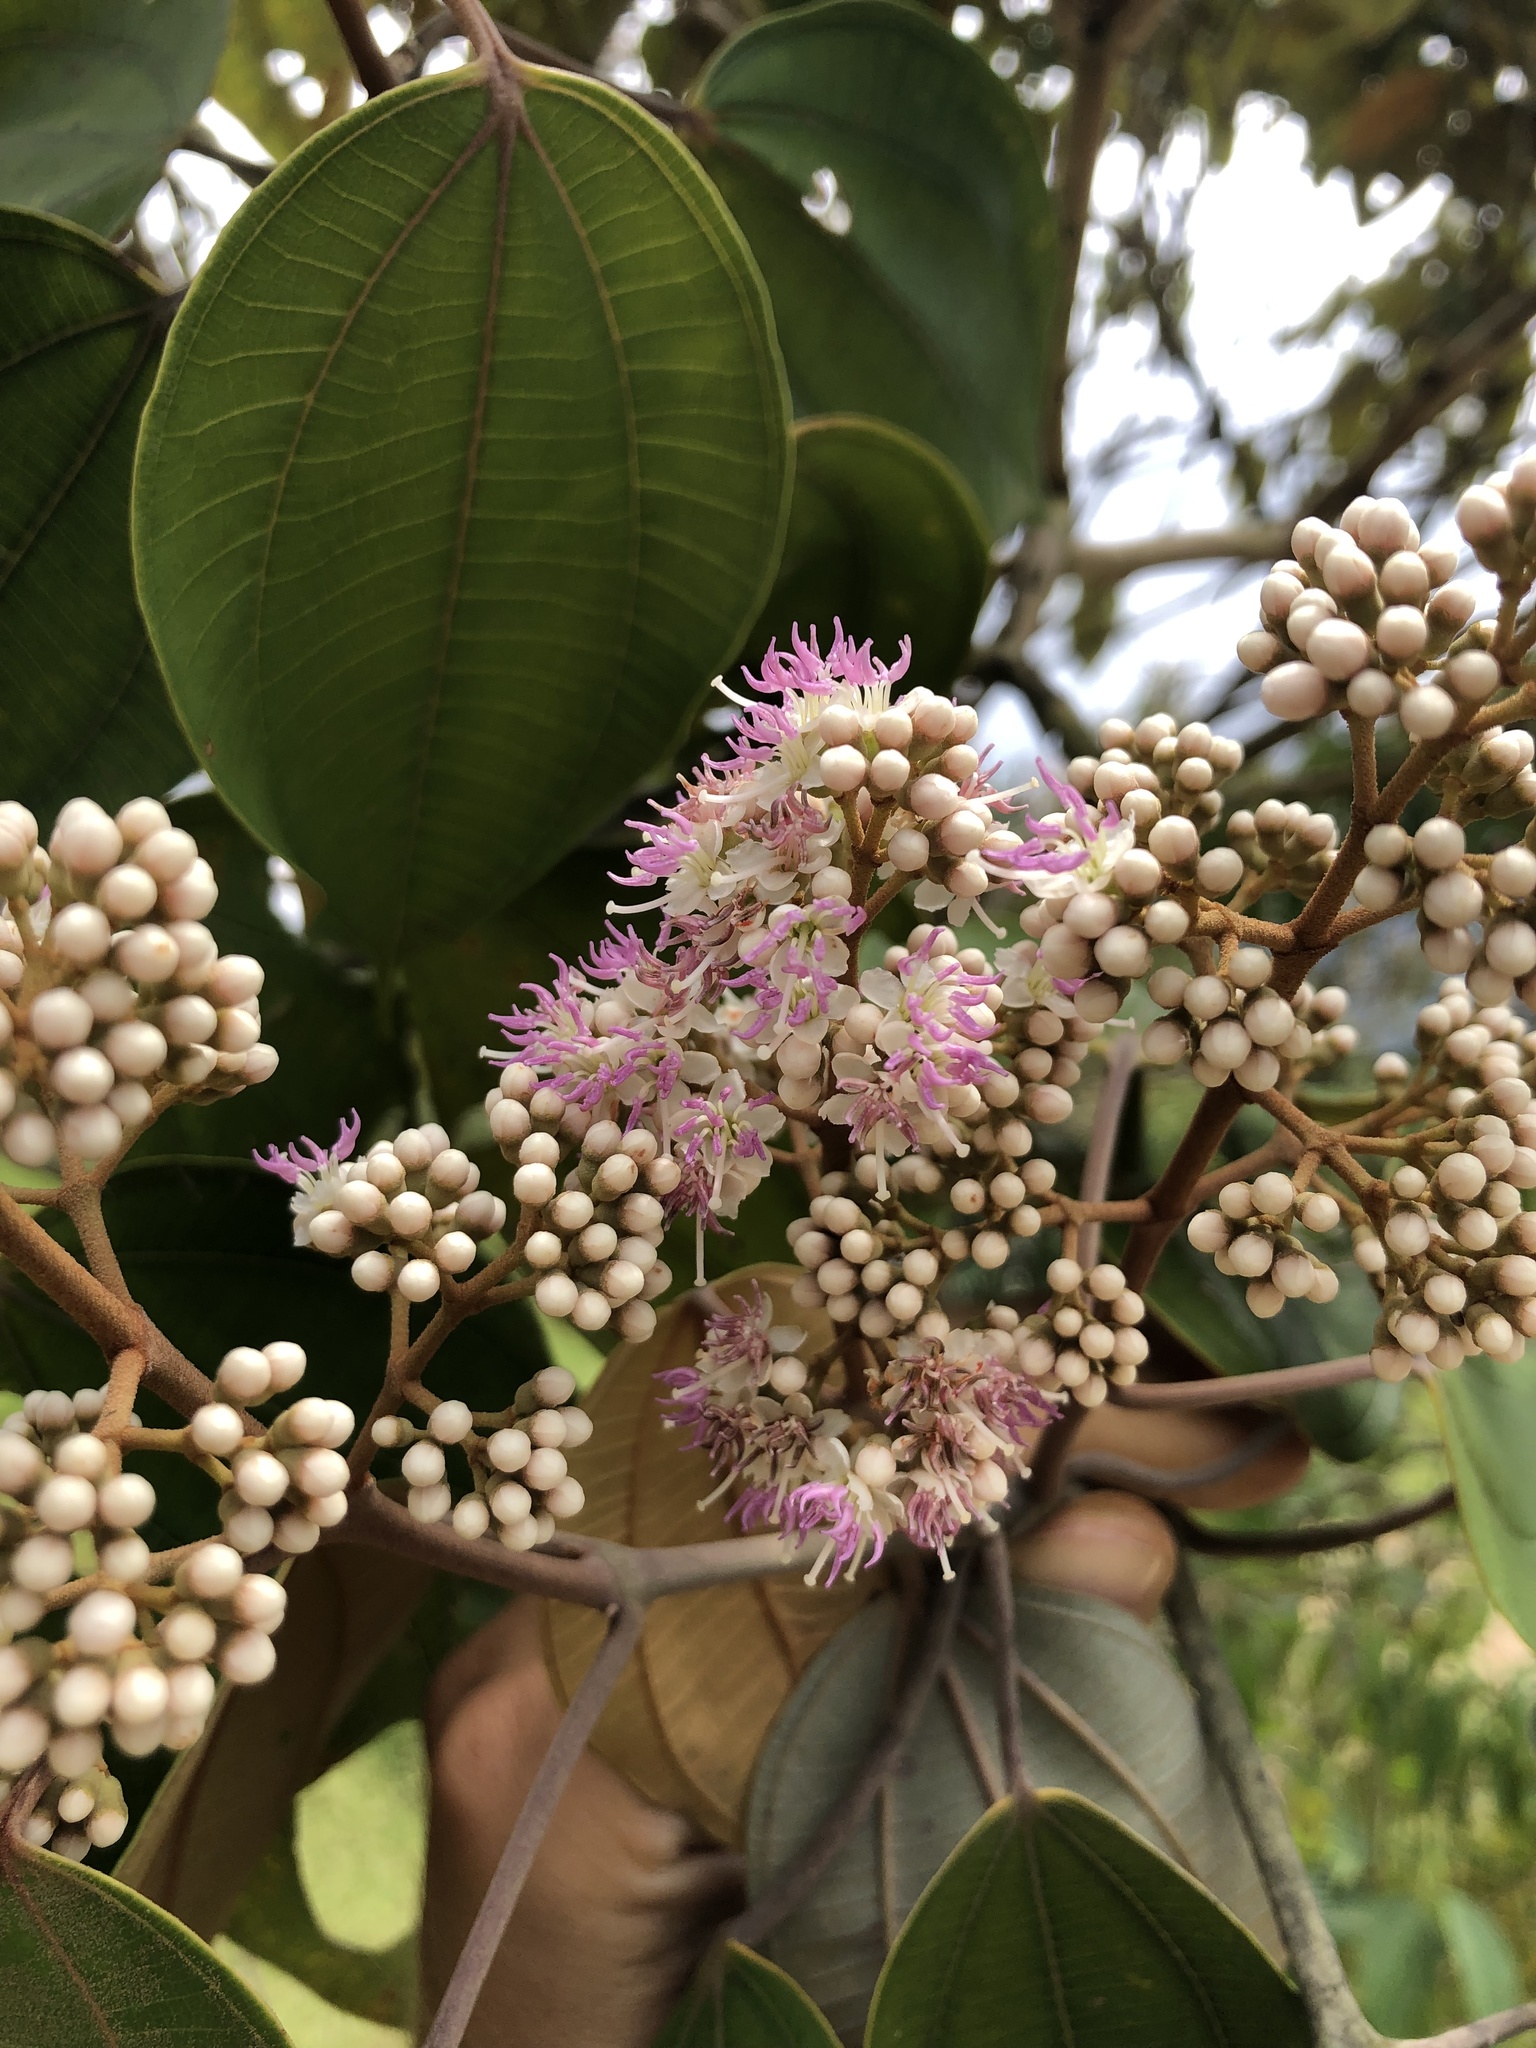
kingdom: Plantae
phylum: Tracheophyta
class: Magnoliopsida
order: Myrtales
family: Melastomataceae
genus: Miconia
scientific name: Miconia caudata
